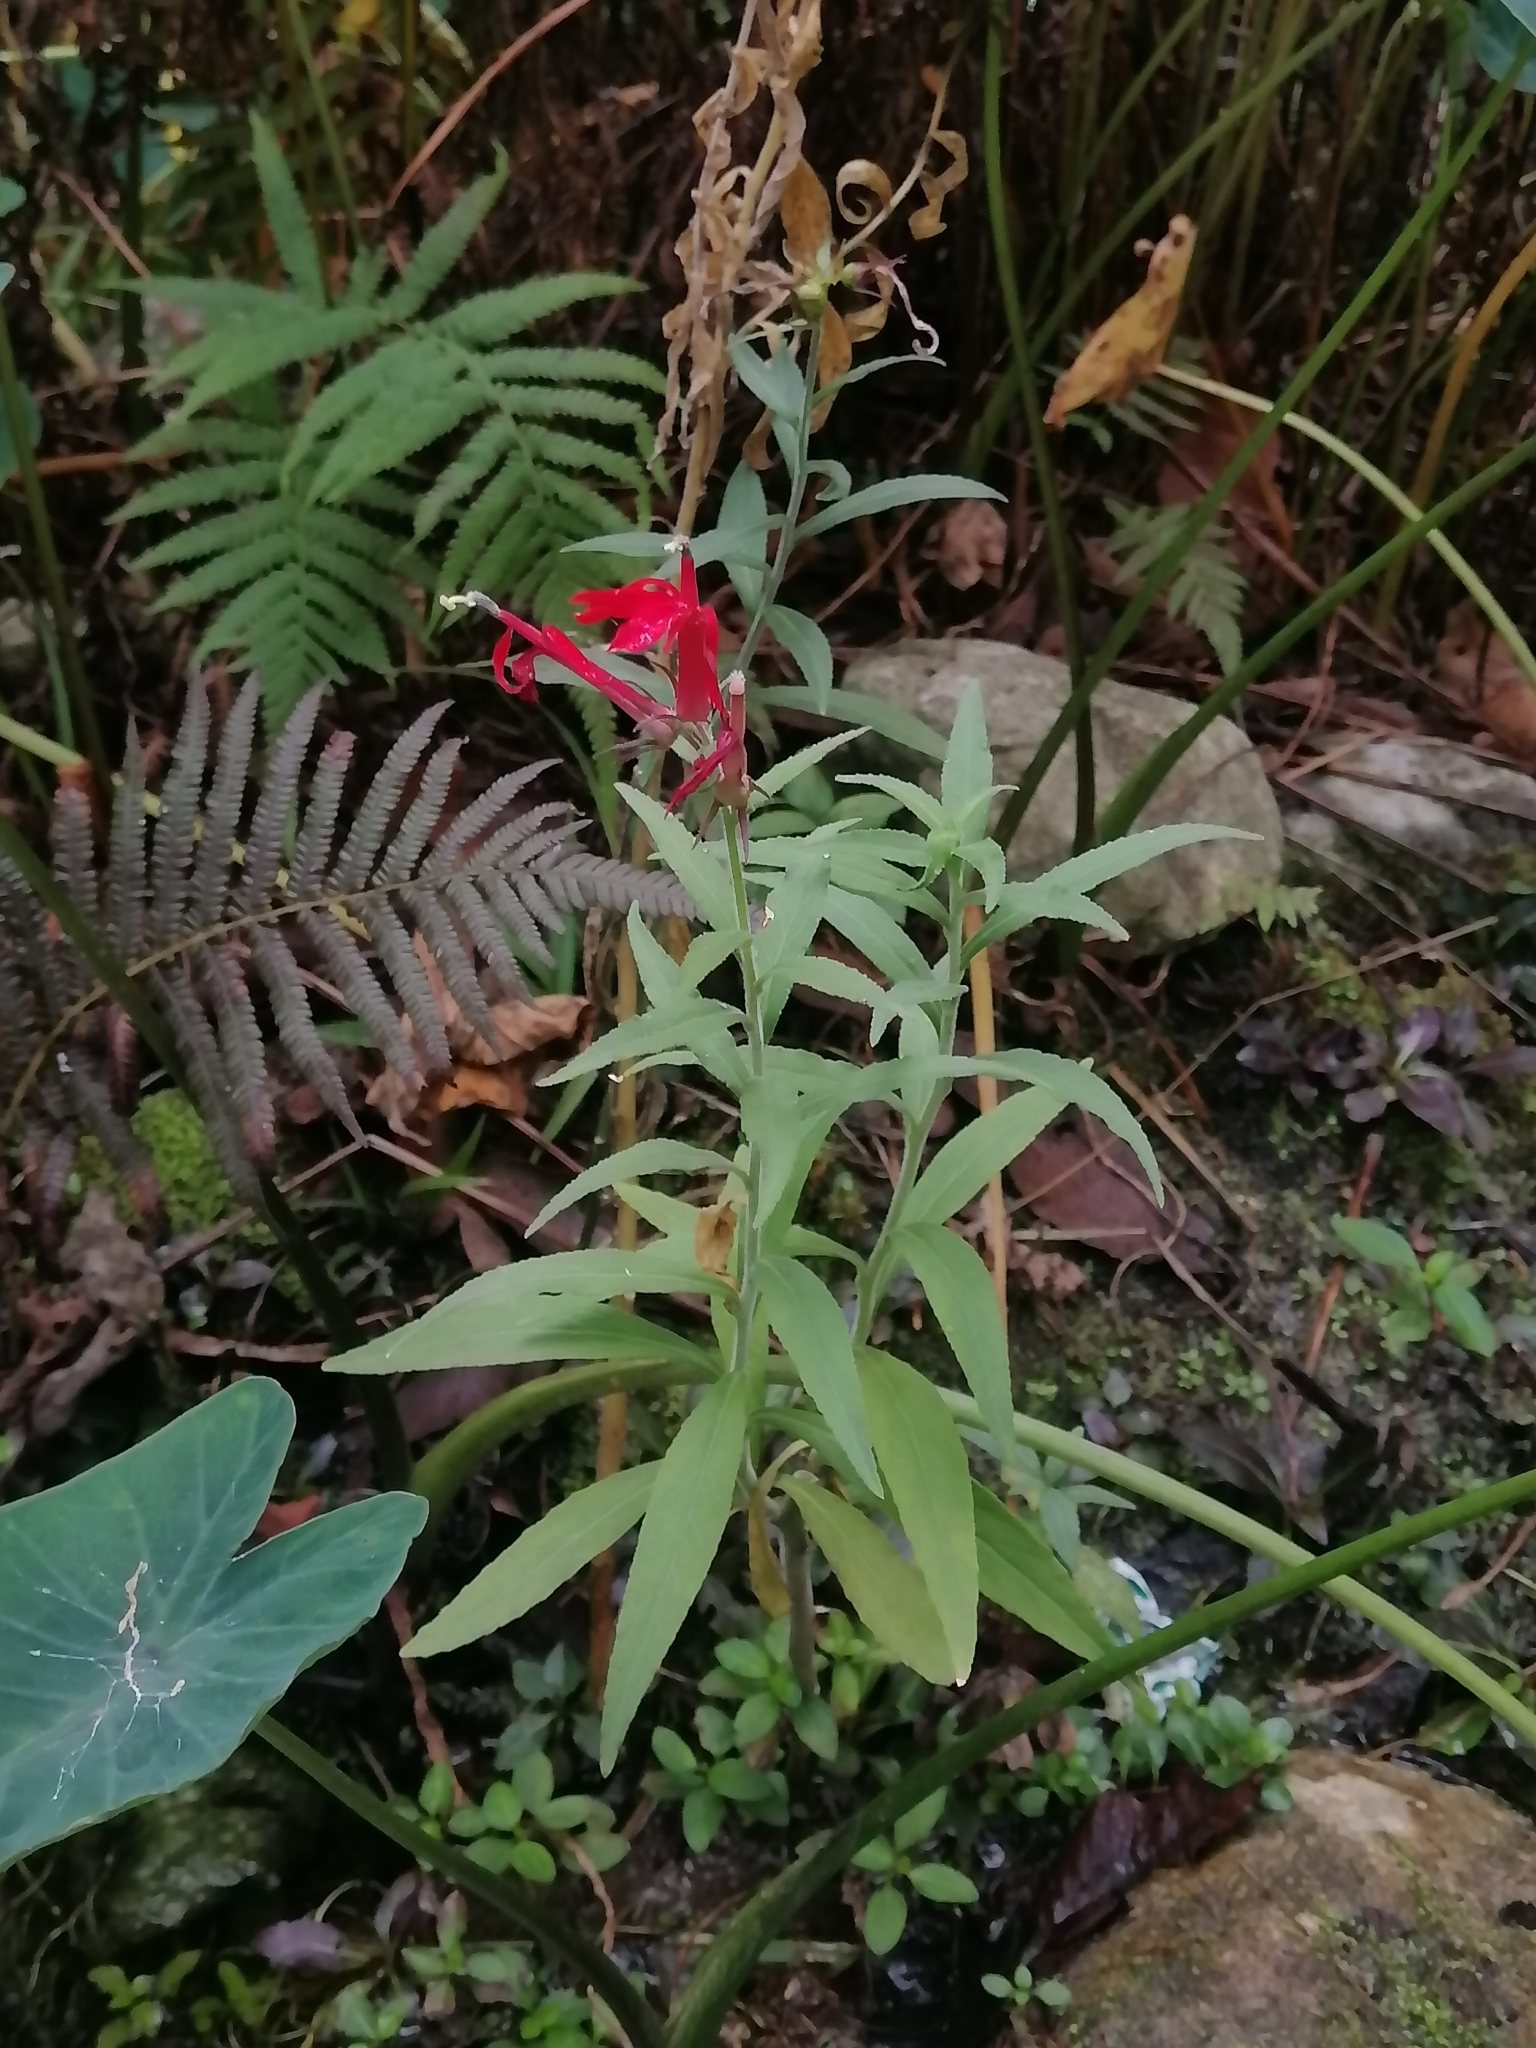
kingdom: Plantae
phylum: Tracheophyta
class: Magnoliopsida
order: Asterales
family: Campanulaceae
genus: Lobelia
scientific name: Lobelia cardinalis
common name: Cardinal flower
